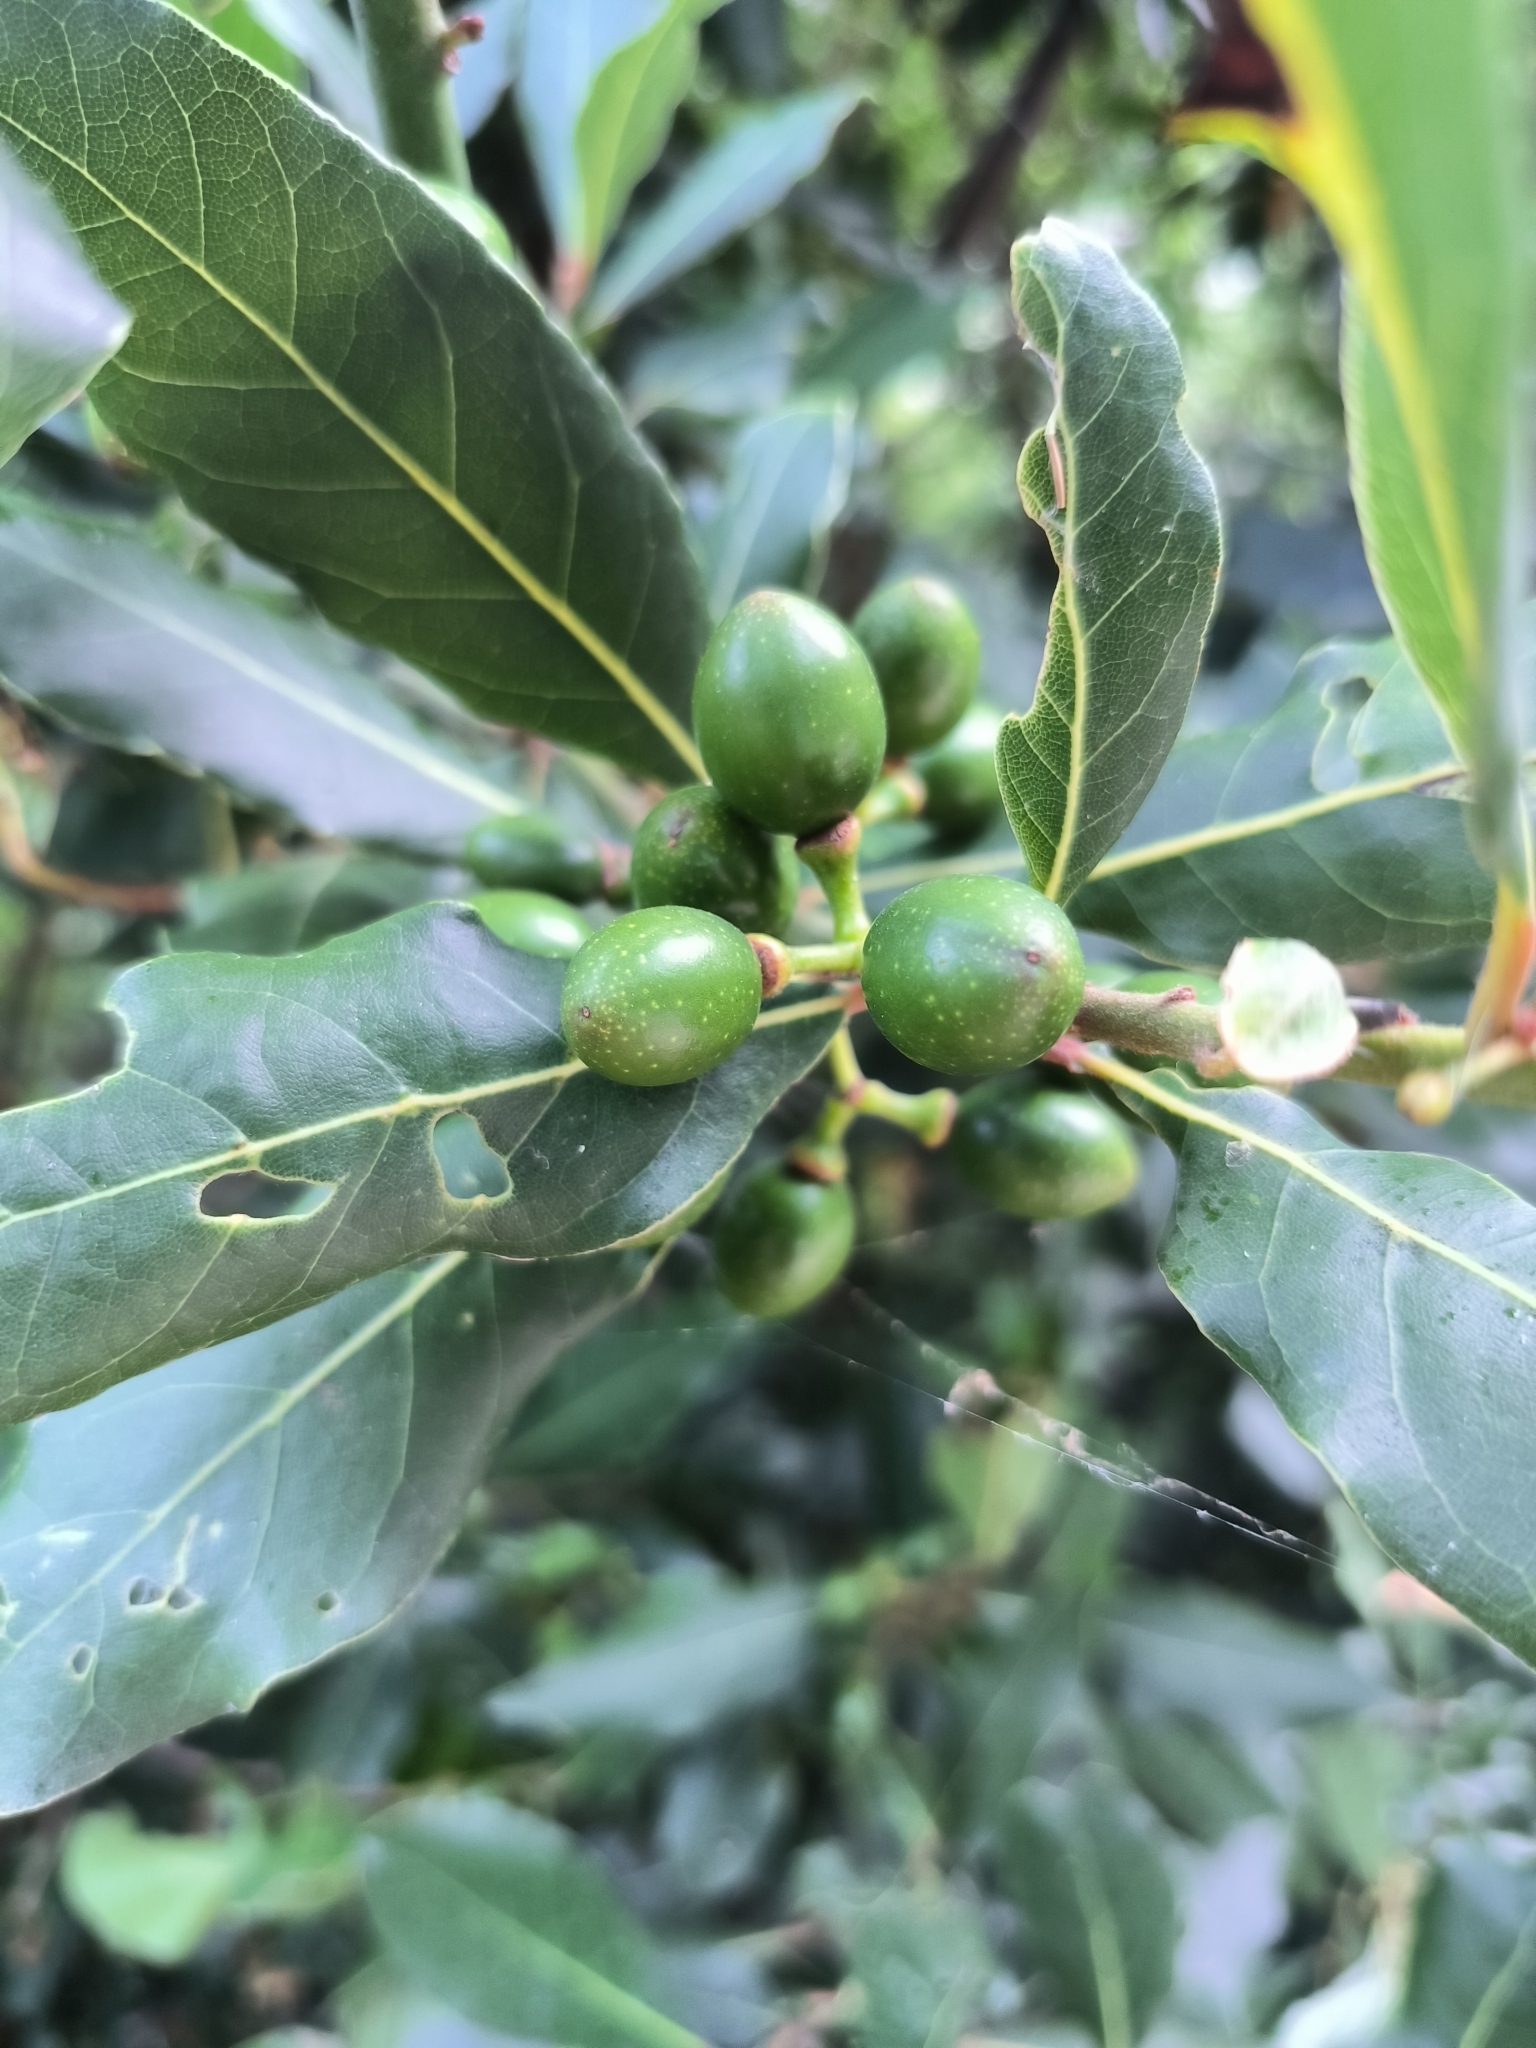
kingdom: Plantae
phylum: Tracheophyta
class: Magnoliopsida
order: Laurales
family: Lauraceae
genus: Laurus
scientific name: Laurus nobilis
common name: Bay
